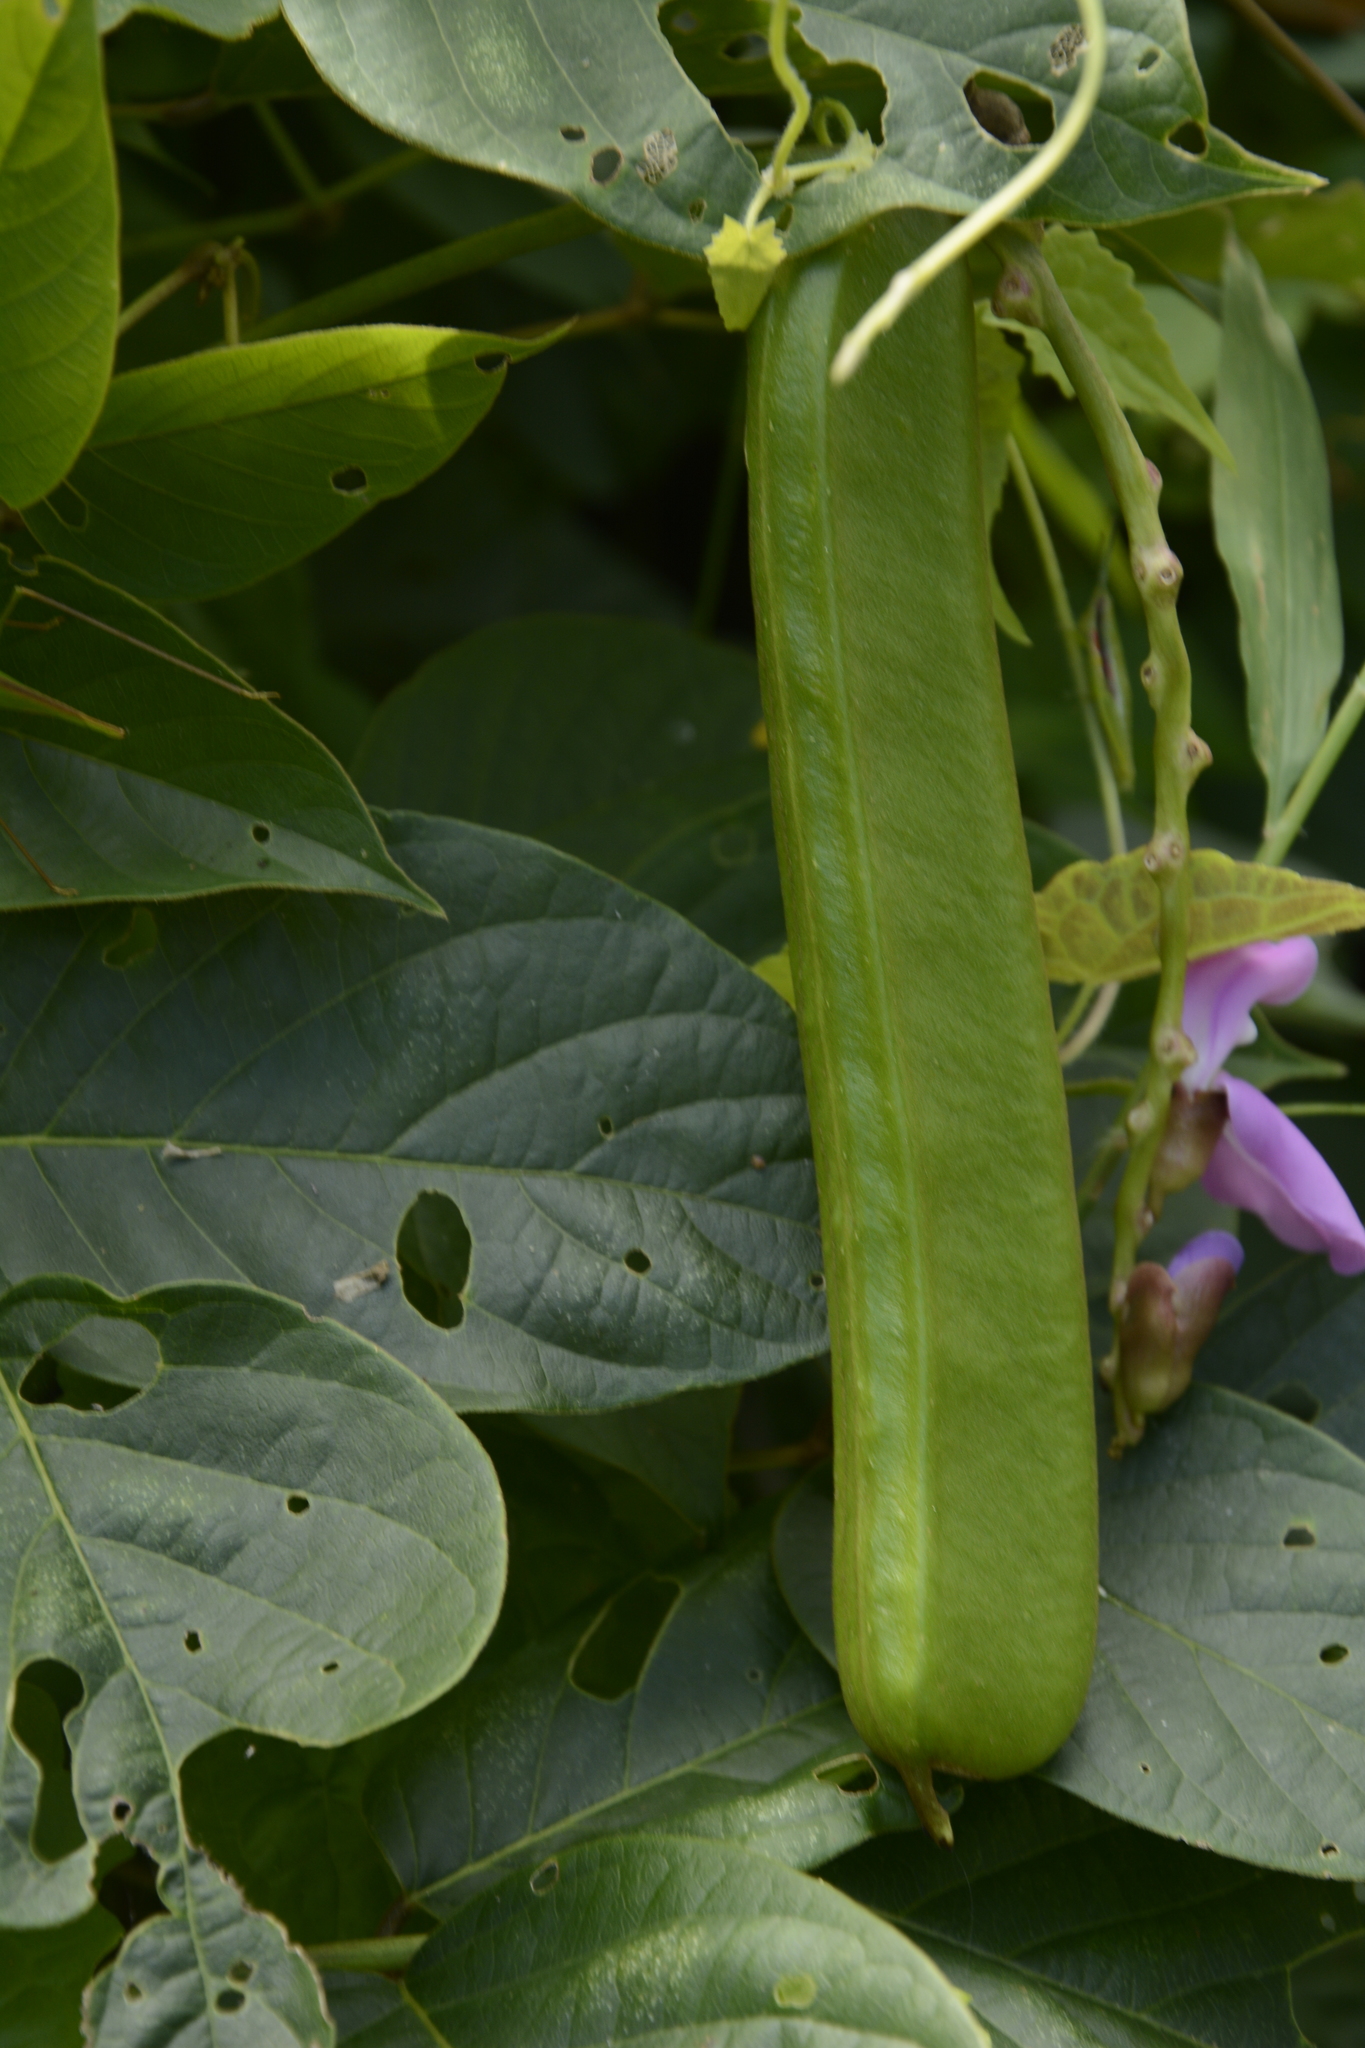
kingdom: Plantae
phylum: Tracheophyta
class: Magnoliopsida
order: Fabales
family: Fabaceae
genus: Canavalia
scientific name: Canavalia ensiformis
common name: Jack bean
